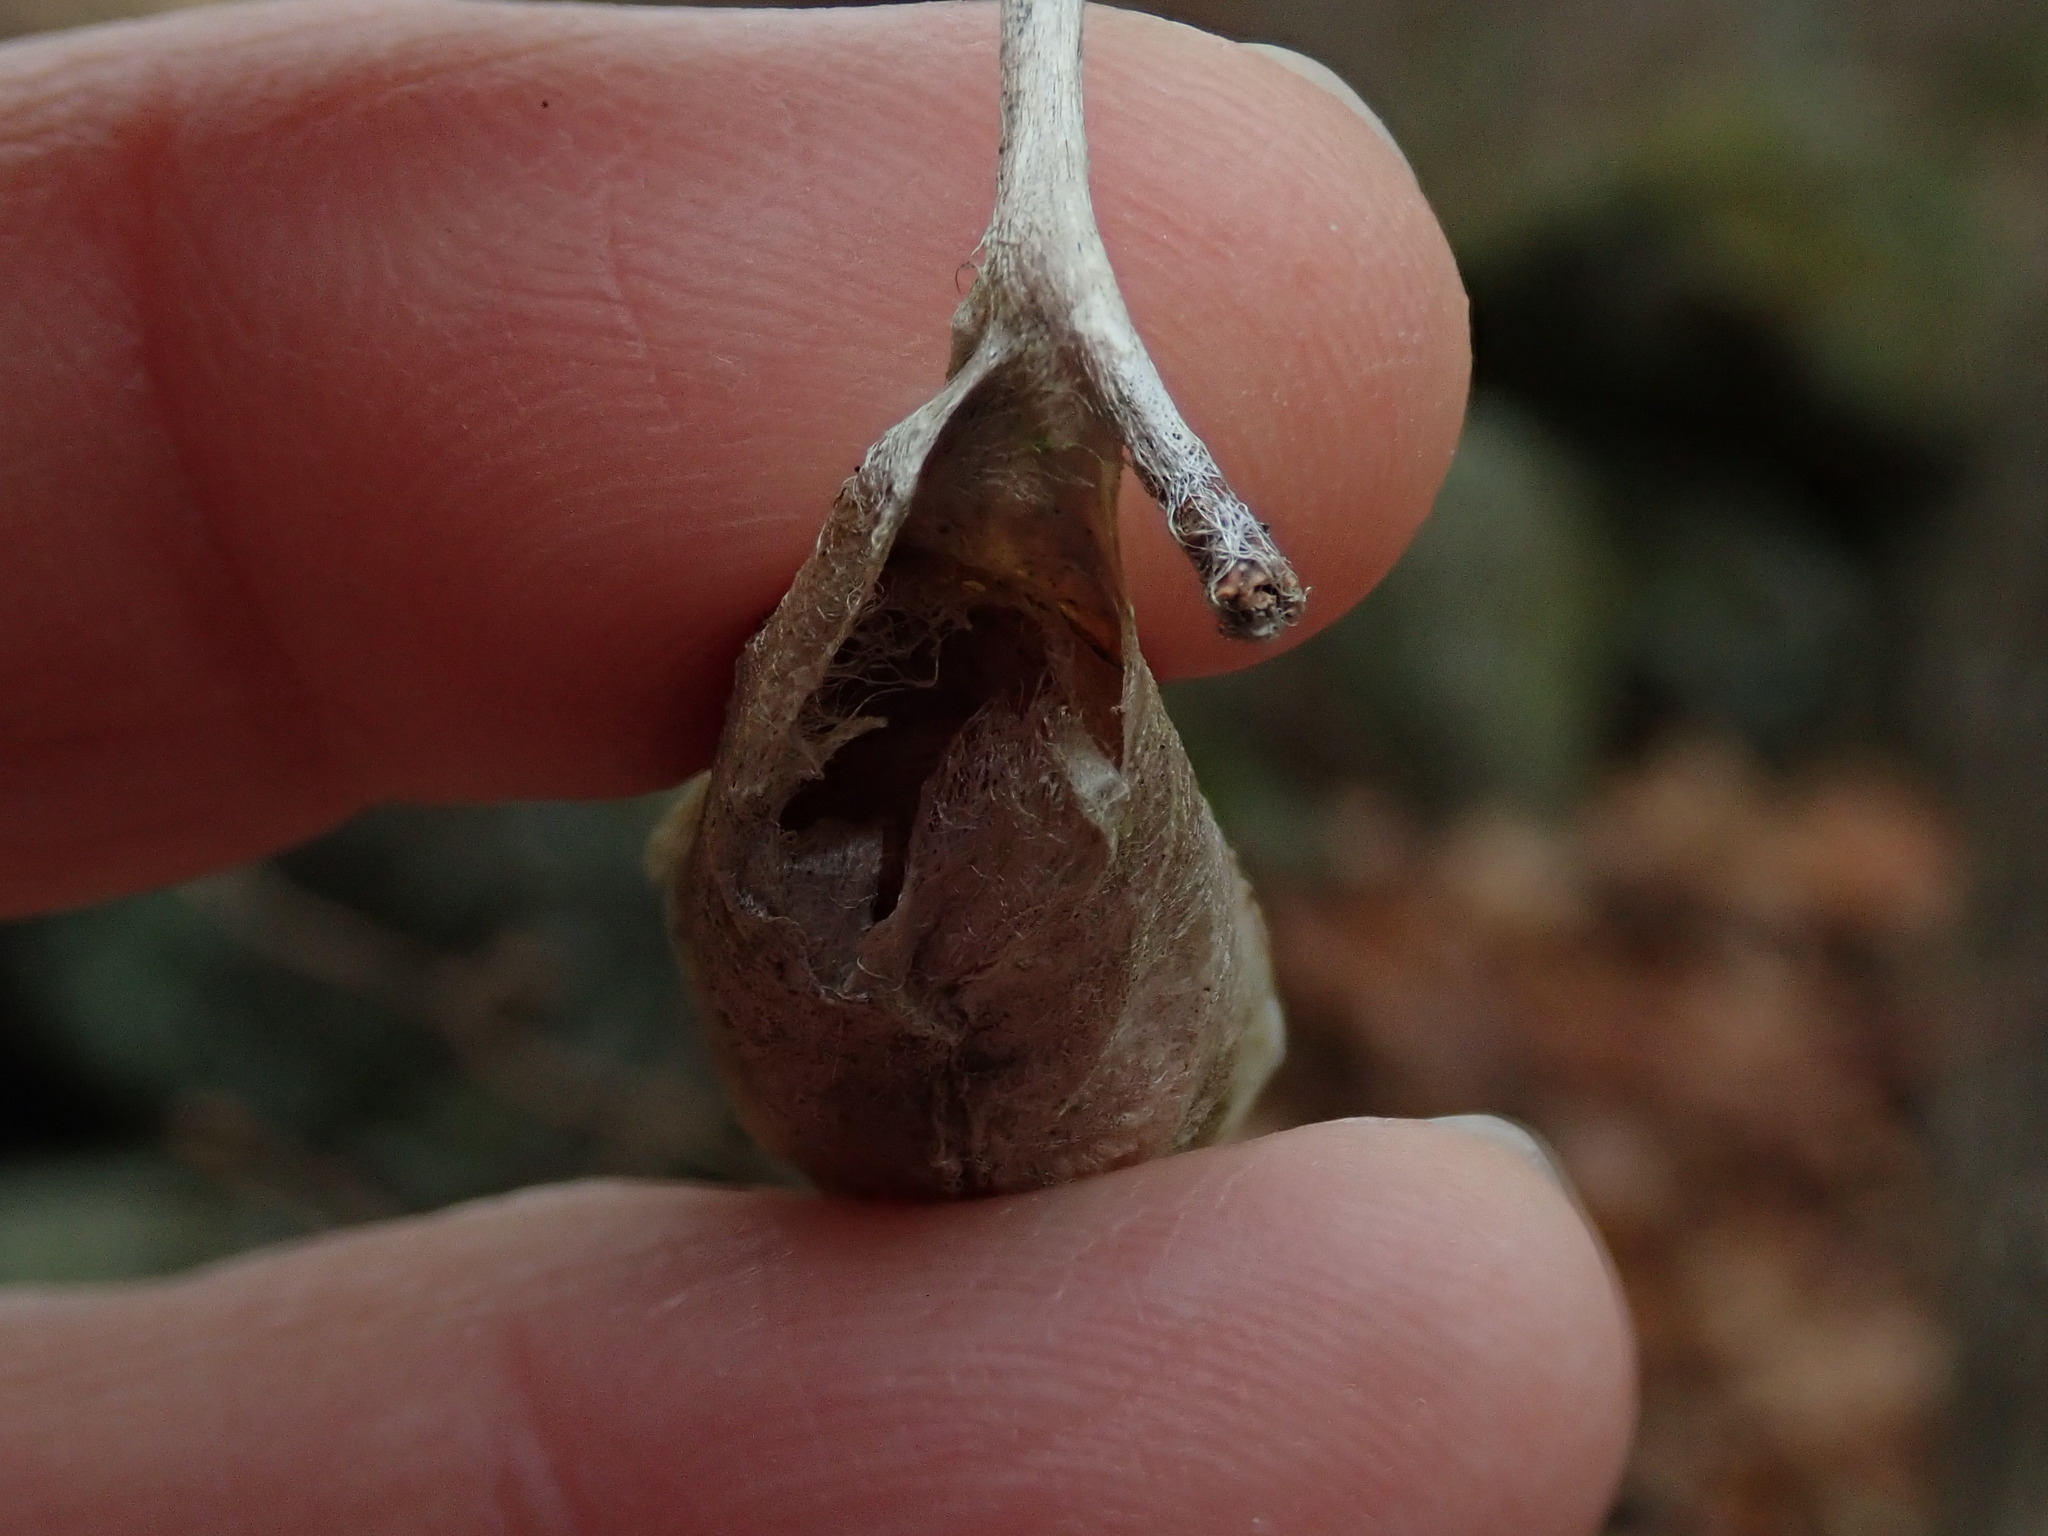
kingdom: Animalia
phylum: Arthropoda
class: Insecta
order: Lepidoptera
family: Saturniidae
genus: Callosamia
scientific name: Callosamia promethea
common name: Promethea silkmoth
